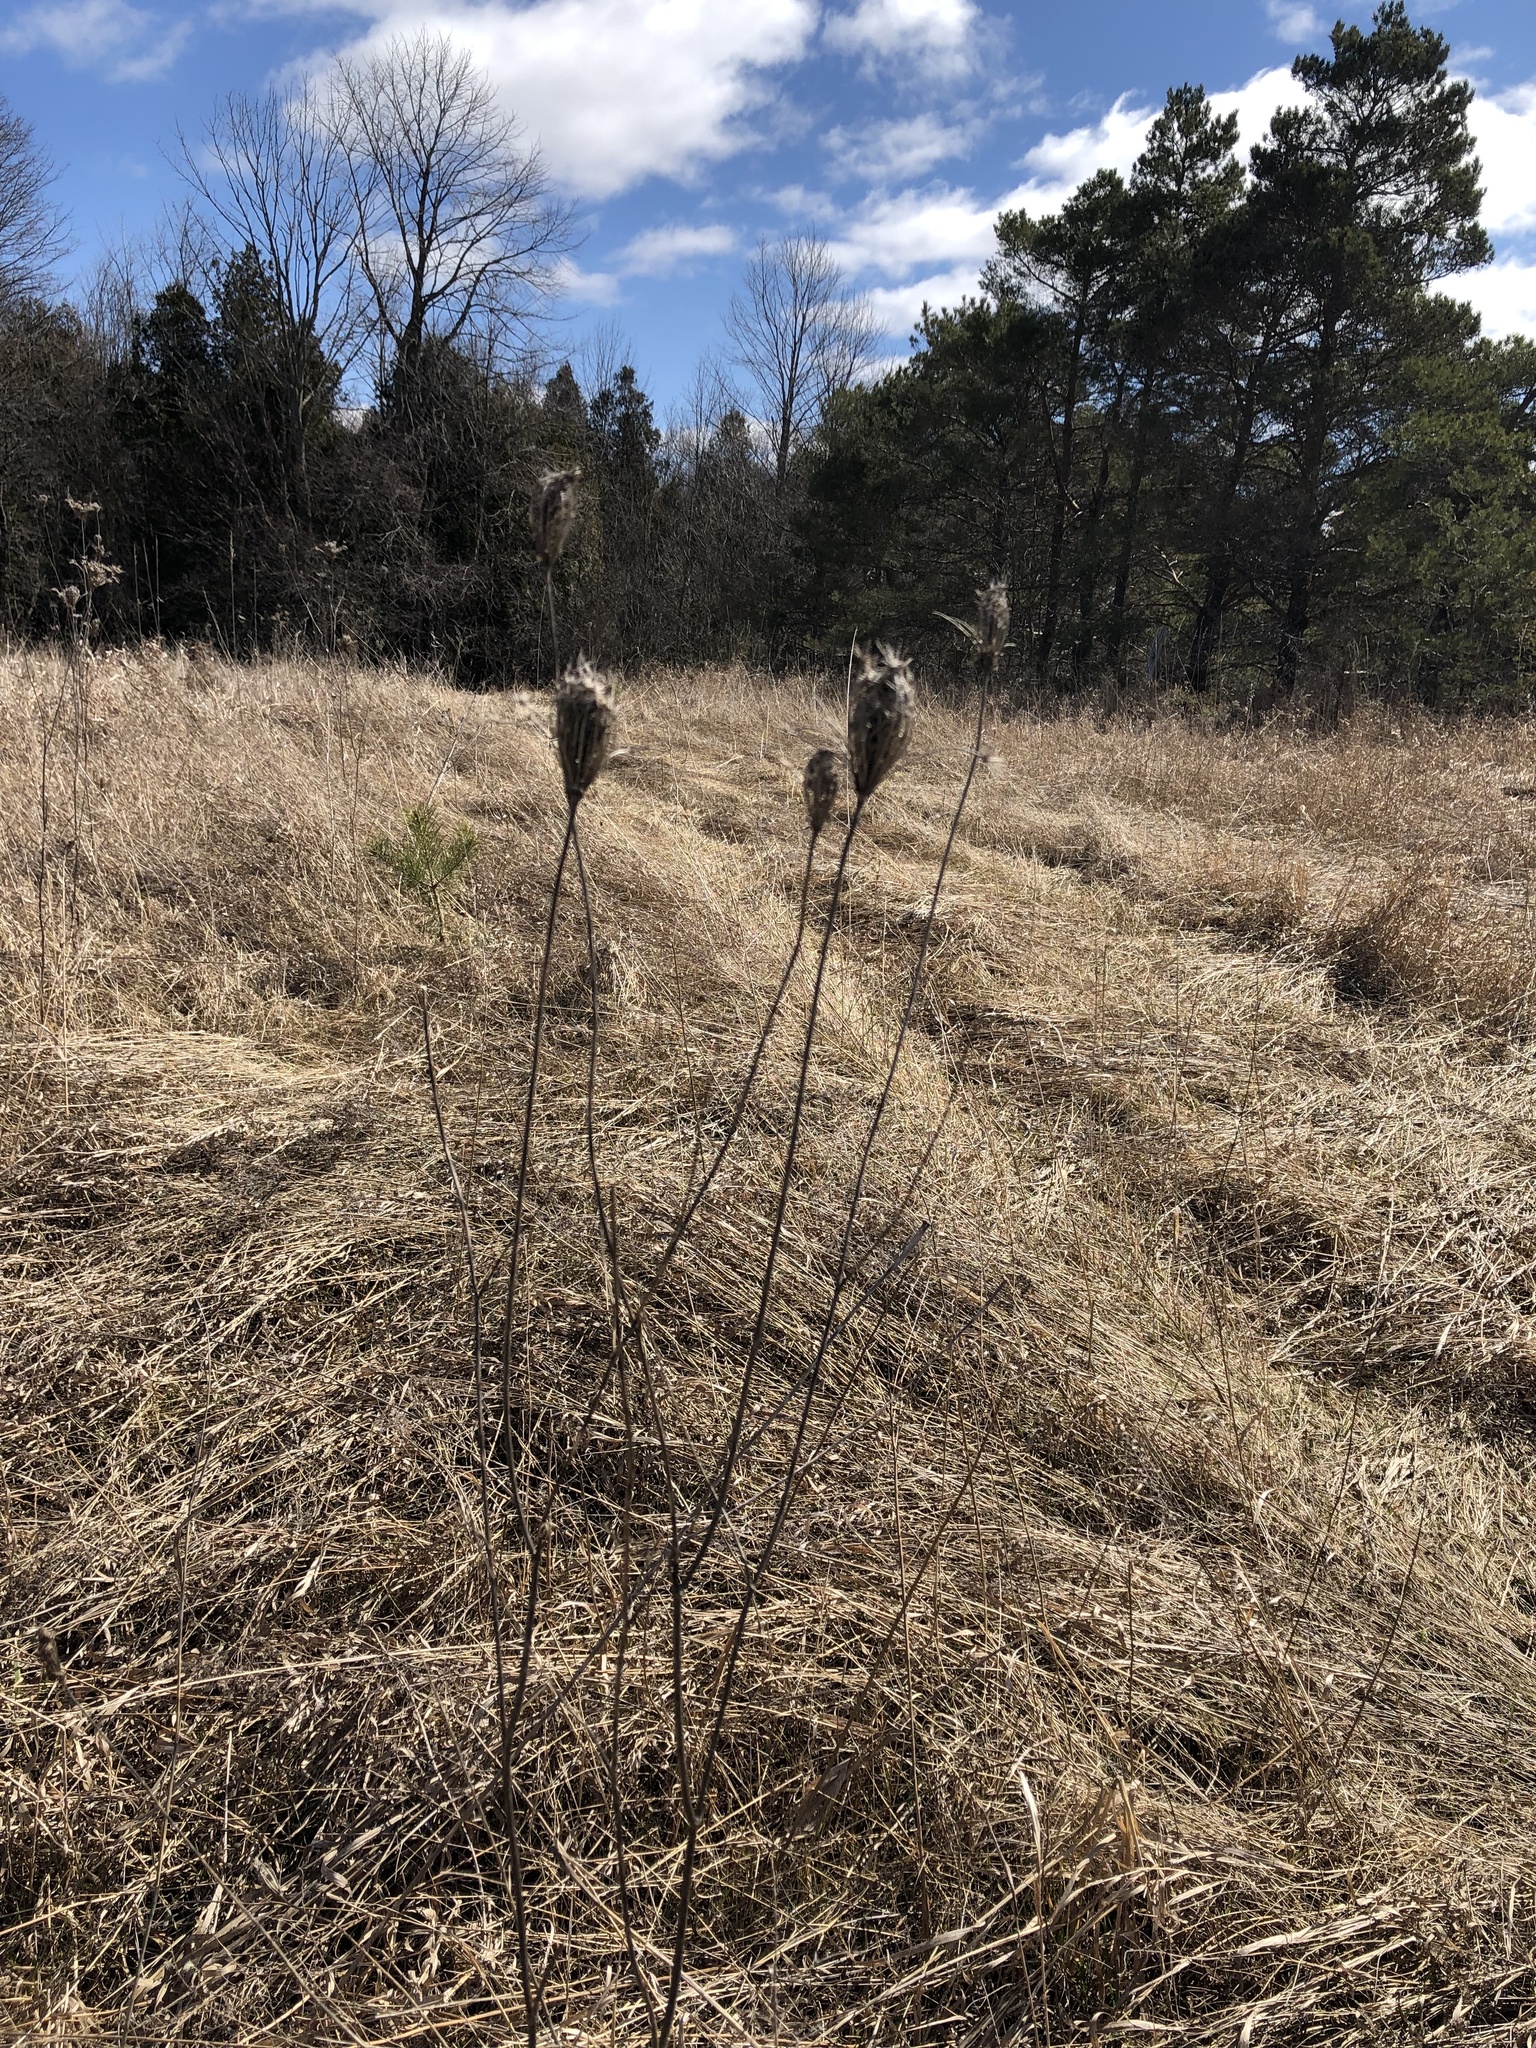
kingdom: Plantae
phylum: Tracheophyta
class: Magnoliopsida
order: Apiales
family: Apiaceae
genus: Daucus
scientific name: Daucus carota
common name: Wild carrot
